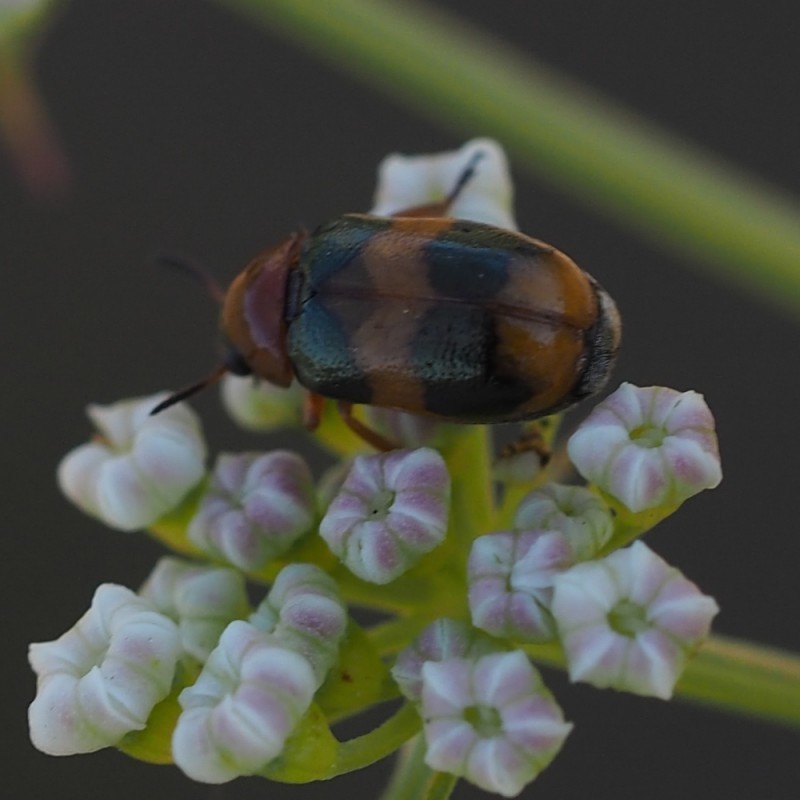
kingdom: Animalia
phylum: Arthropoda
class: Insecta
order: Coleoptera
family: Chrysomelidae
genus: Coptocephala
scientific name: Coptocephala unifasciata
